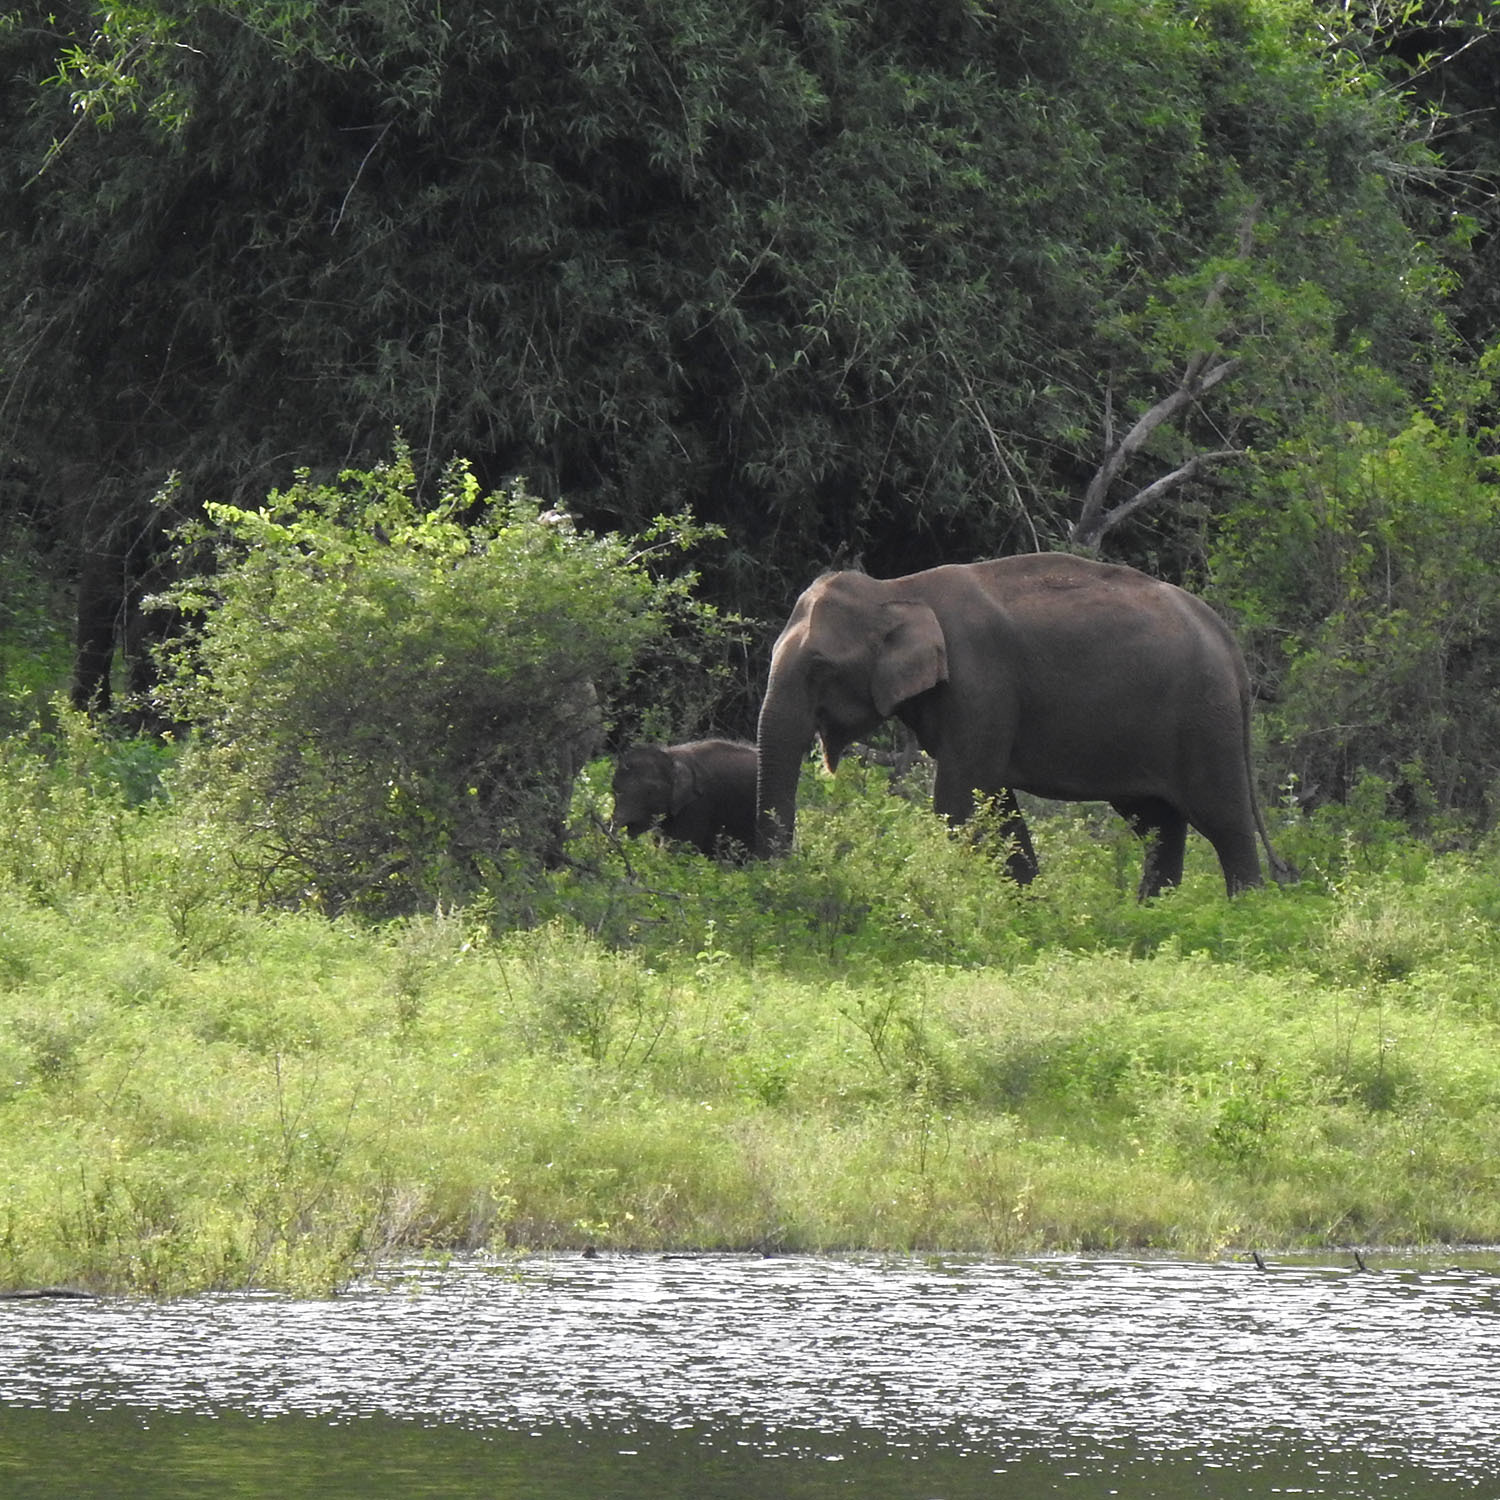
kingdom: Animalia
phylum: Chordata
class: Mammalia
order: Proboscidea
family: Elephantidae
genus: Elephas
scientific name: Elephas maximus
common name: Asian elephant
